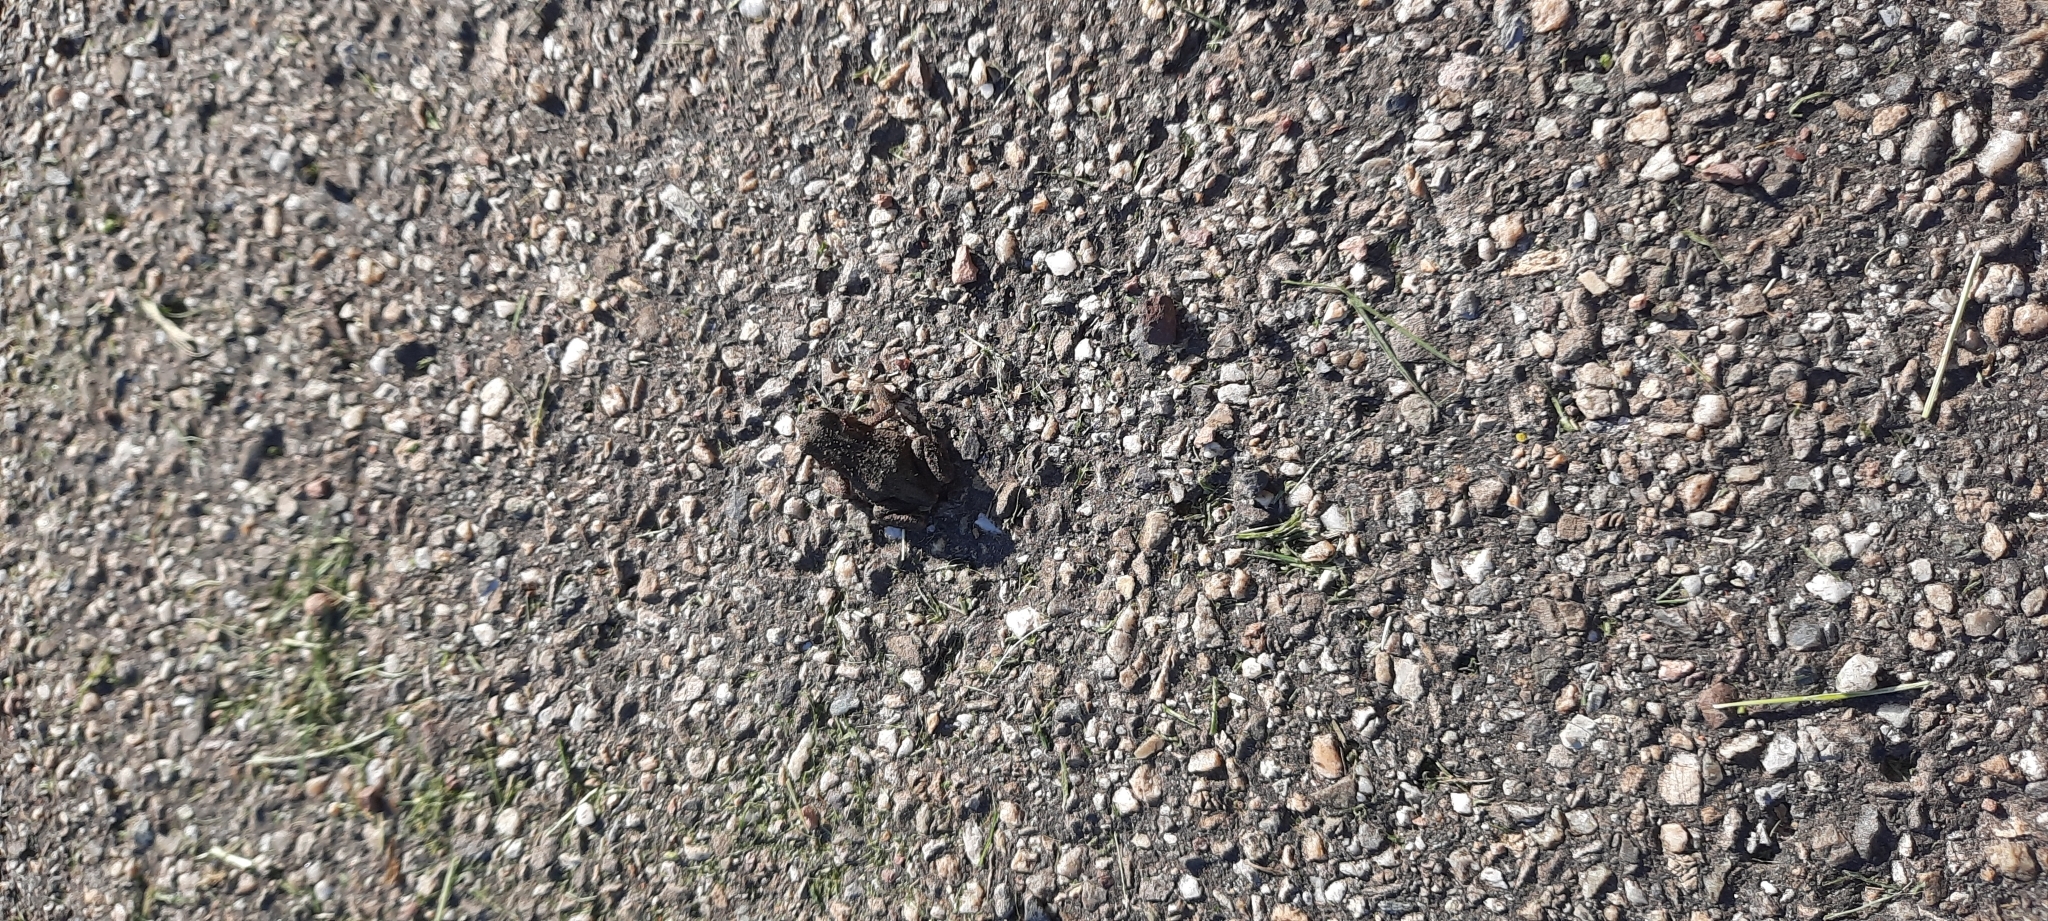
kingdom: Animalia
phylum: Chordata
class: Amphibia
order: Anura
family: Bufonidae
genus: Bufo
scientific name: Bufo bufo
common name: Common toad
